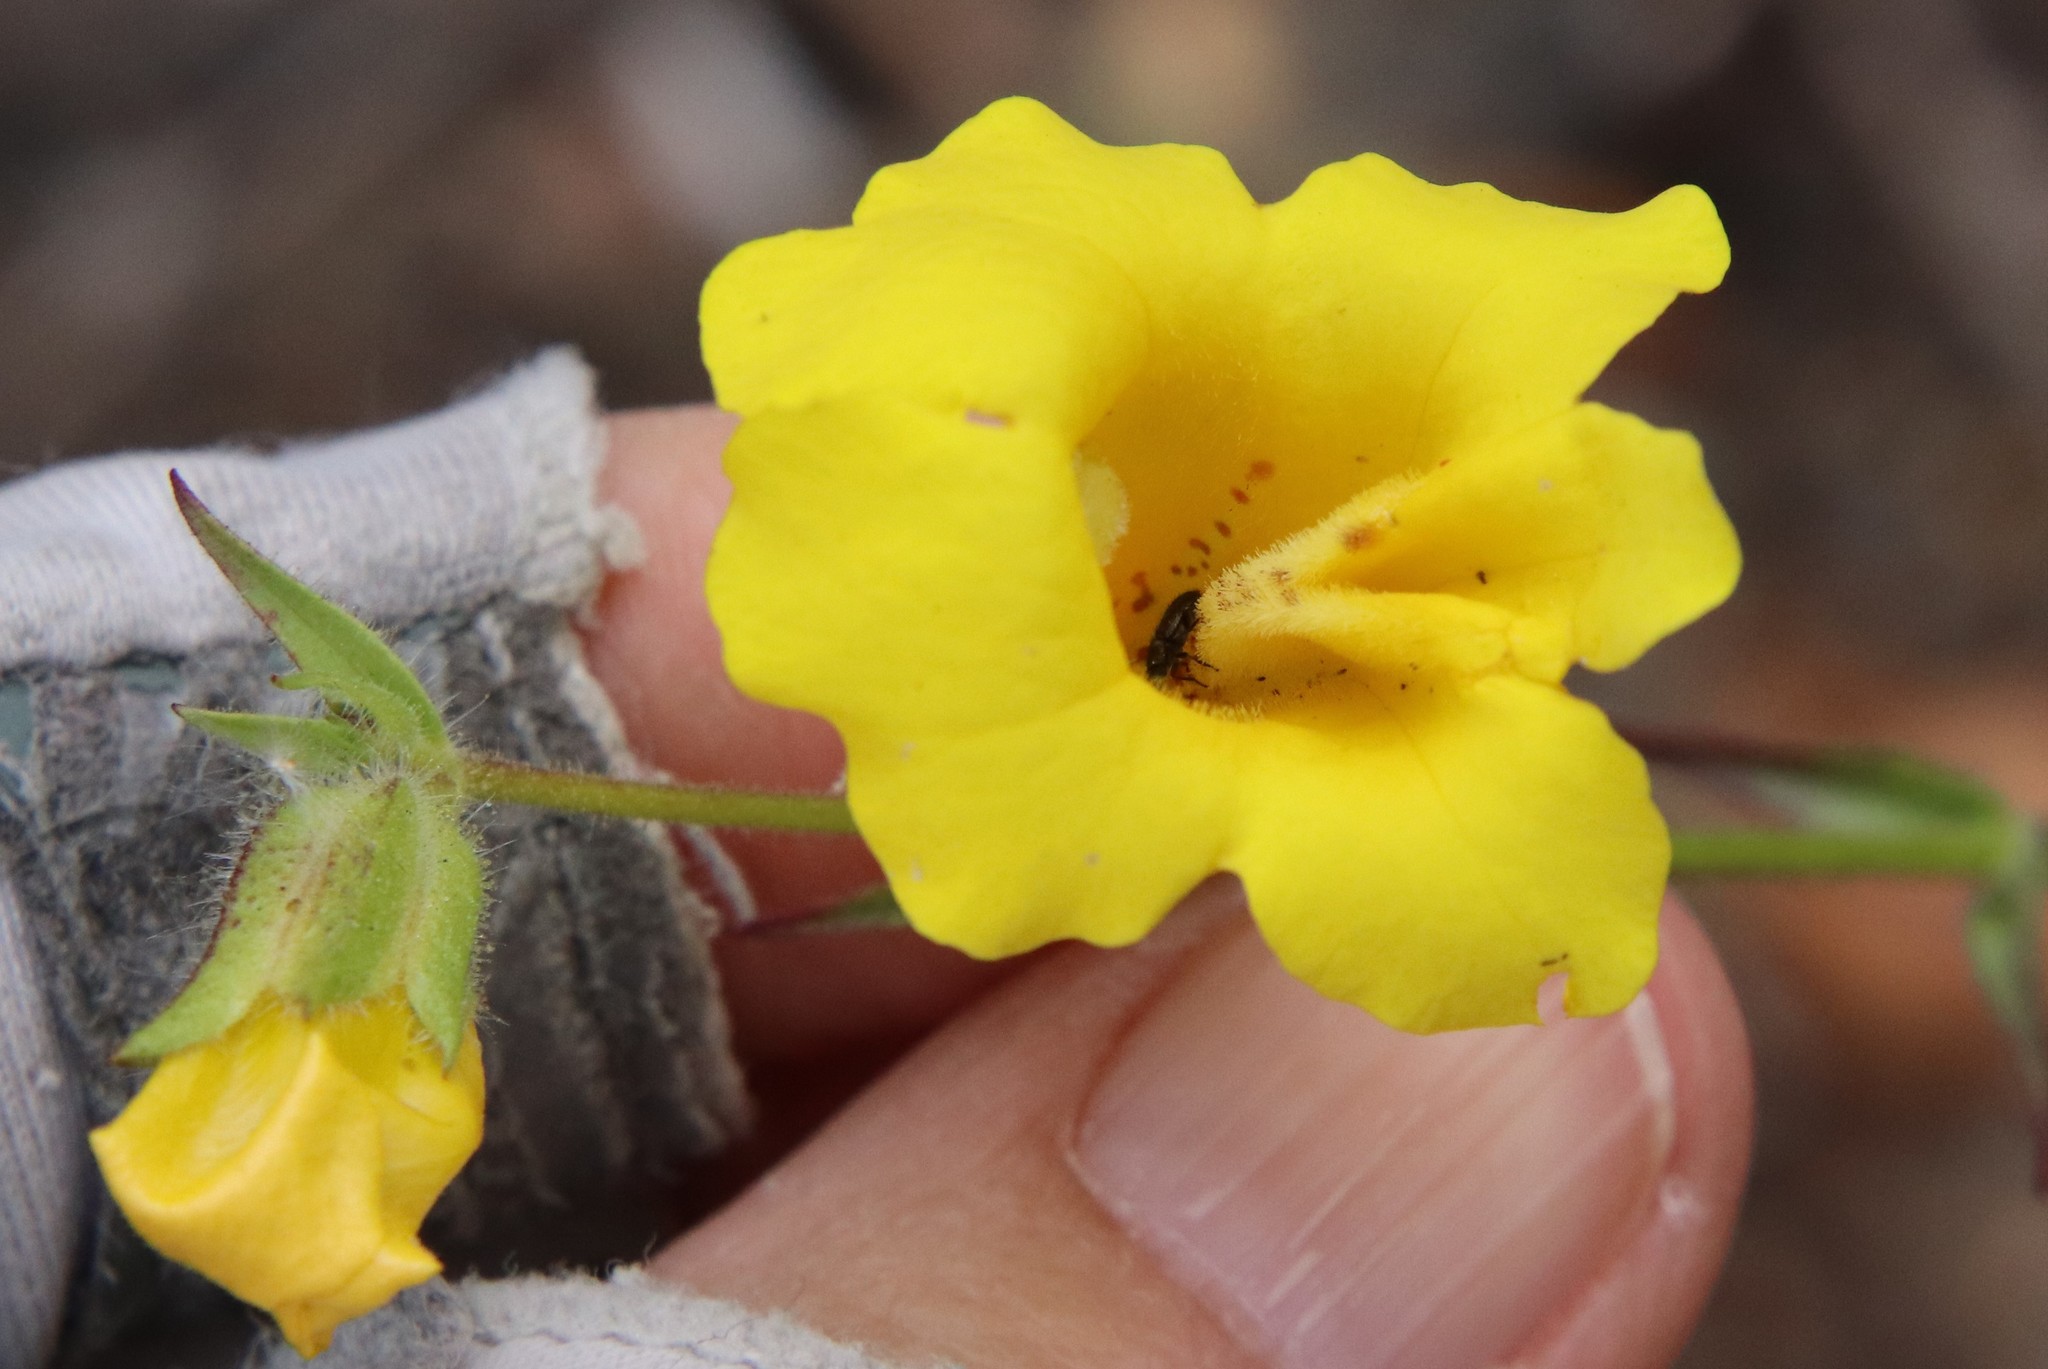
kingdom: Plantae
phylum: Tracheophyta
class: Magnoliopsida
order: Lamiales
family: Phrymaceae
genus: Diplacus
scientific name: Diplacus brevipes
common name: Wide-throat yellow monkey-flower
